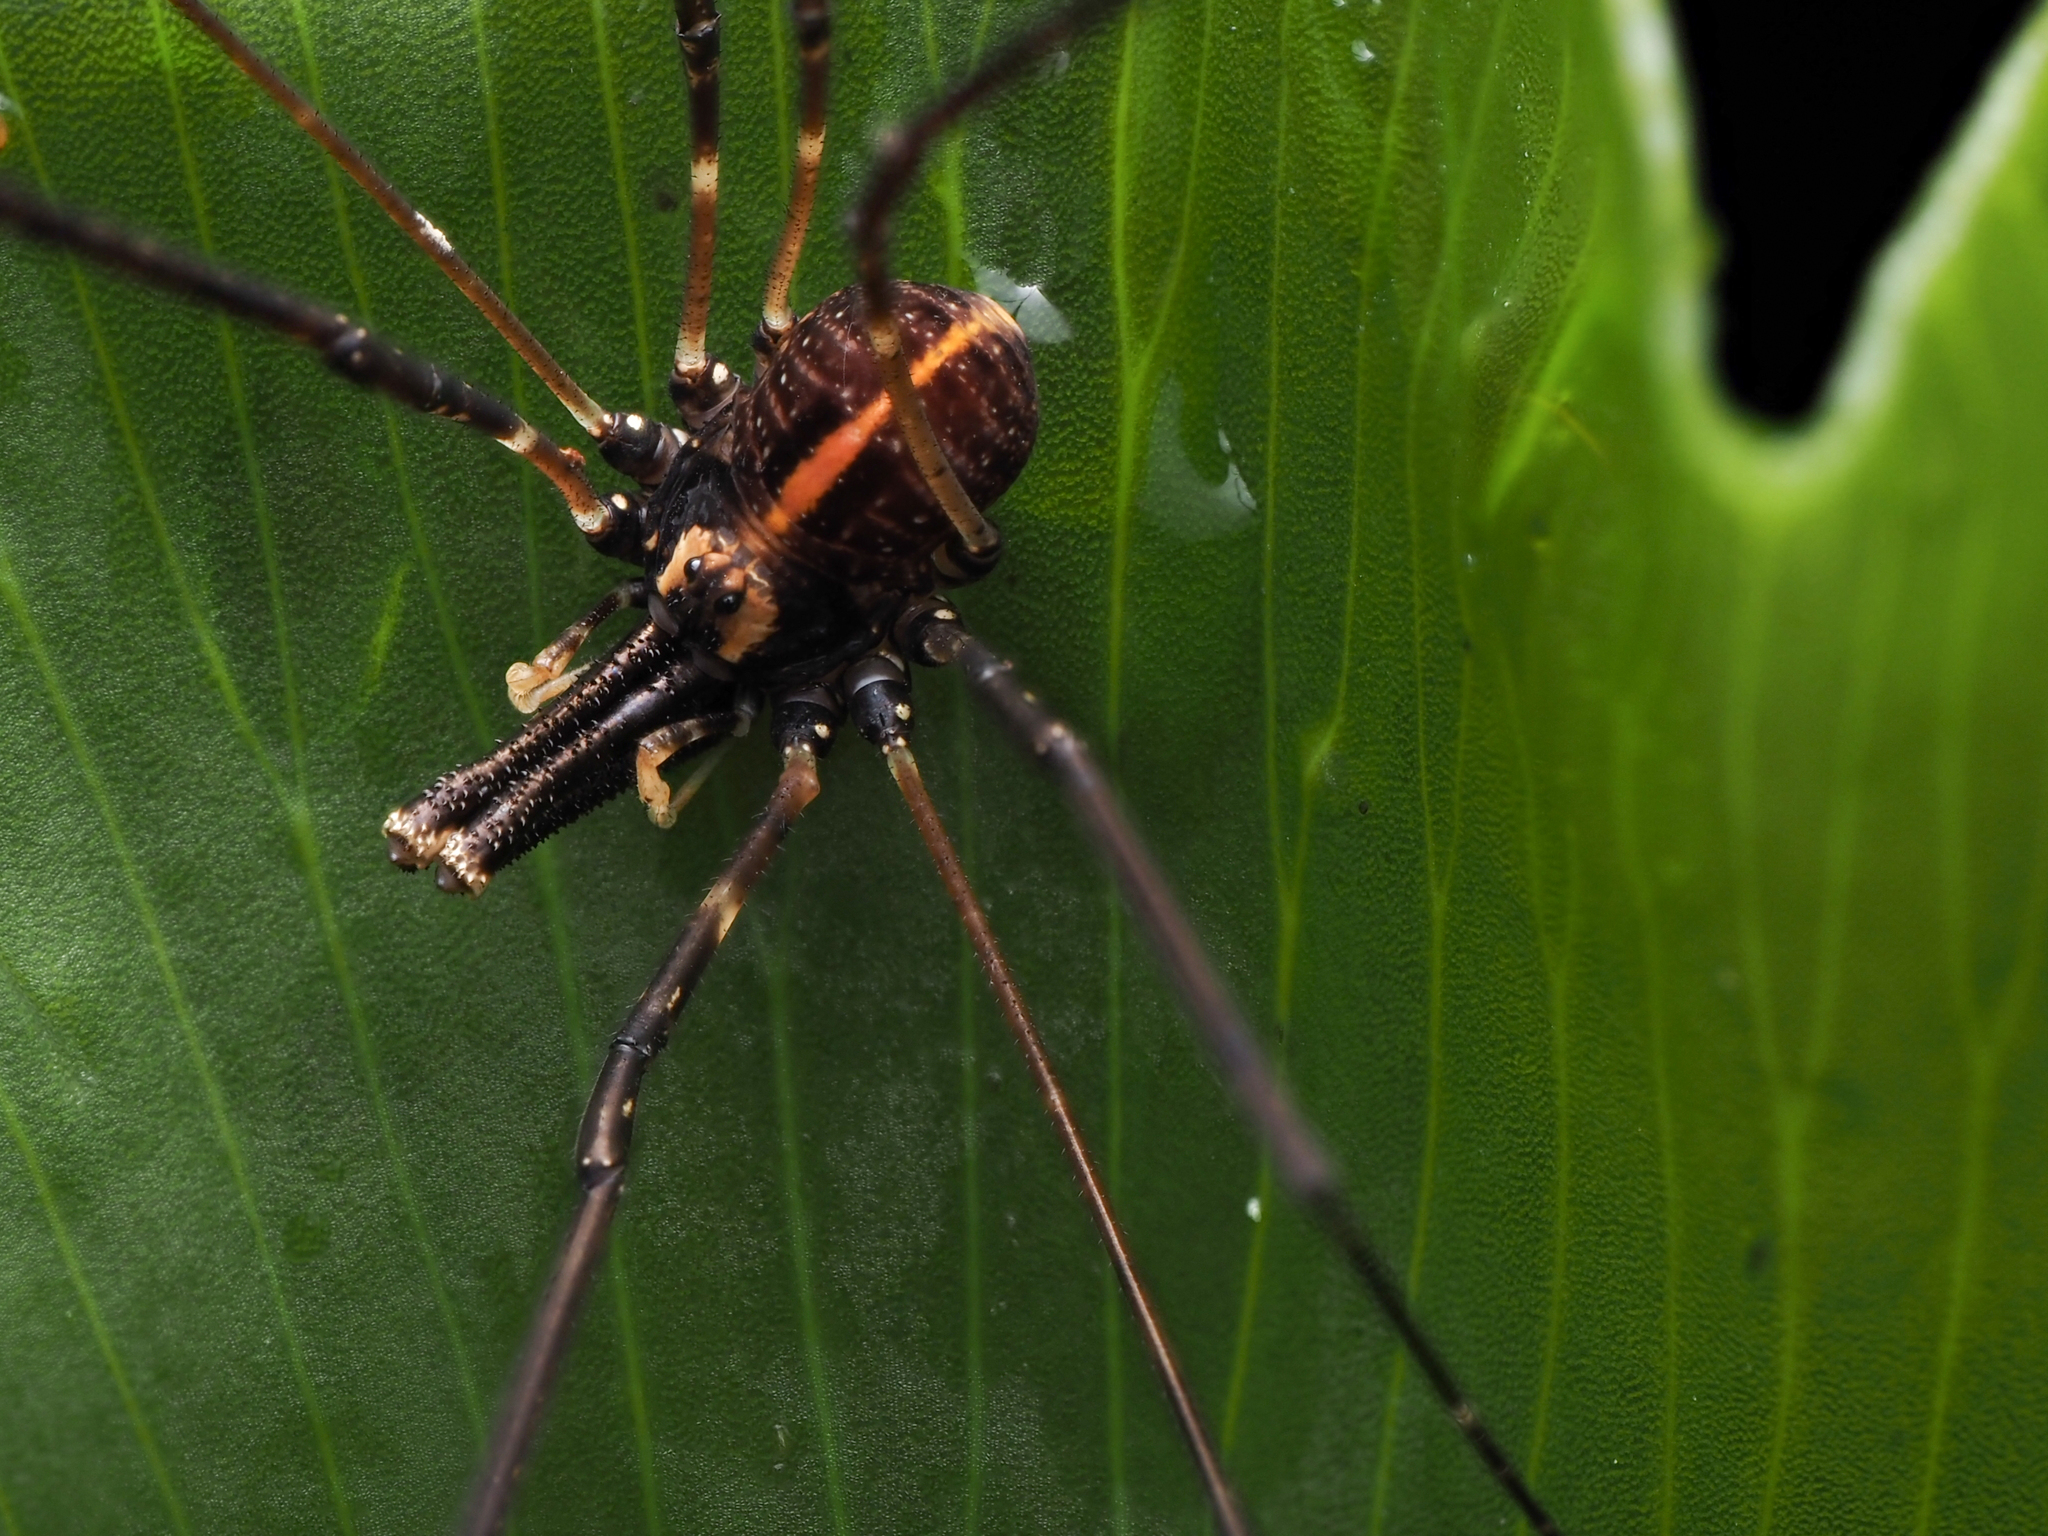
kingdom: Animalia
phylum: Arthropoda
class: Arachnida
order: Opiliones
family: Neopilionidae
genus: Forsteropsalis
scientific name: Forsteropsalis pureora
